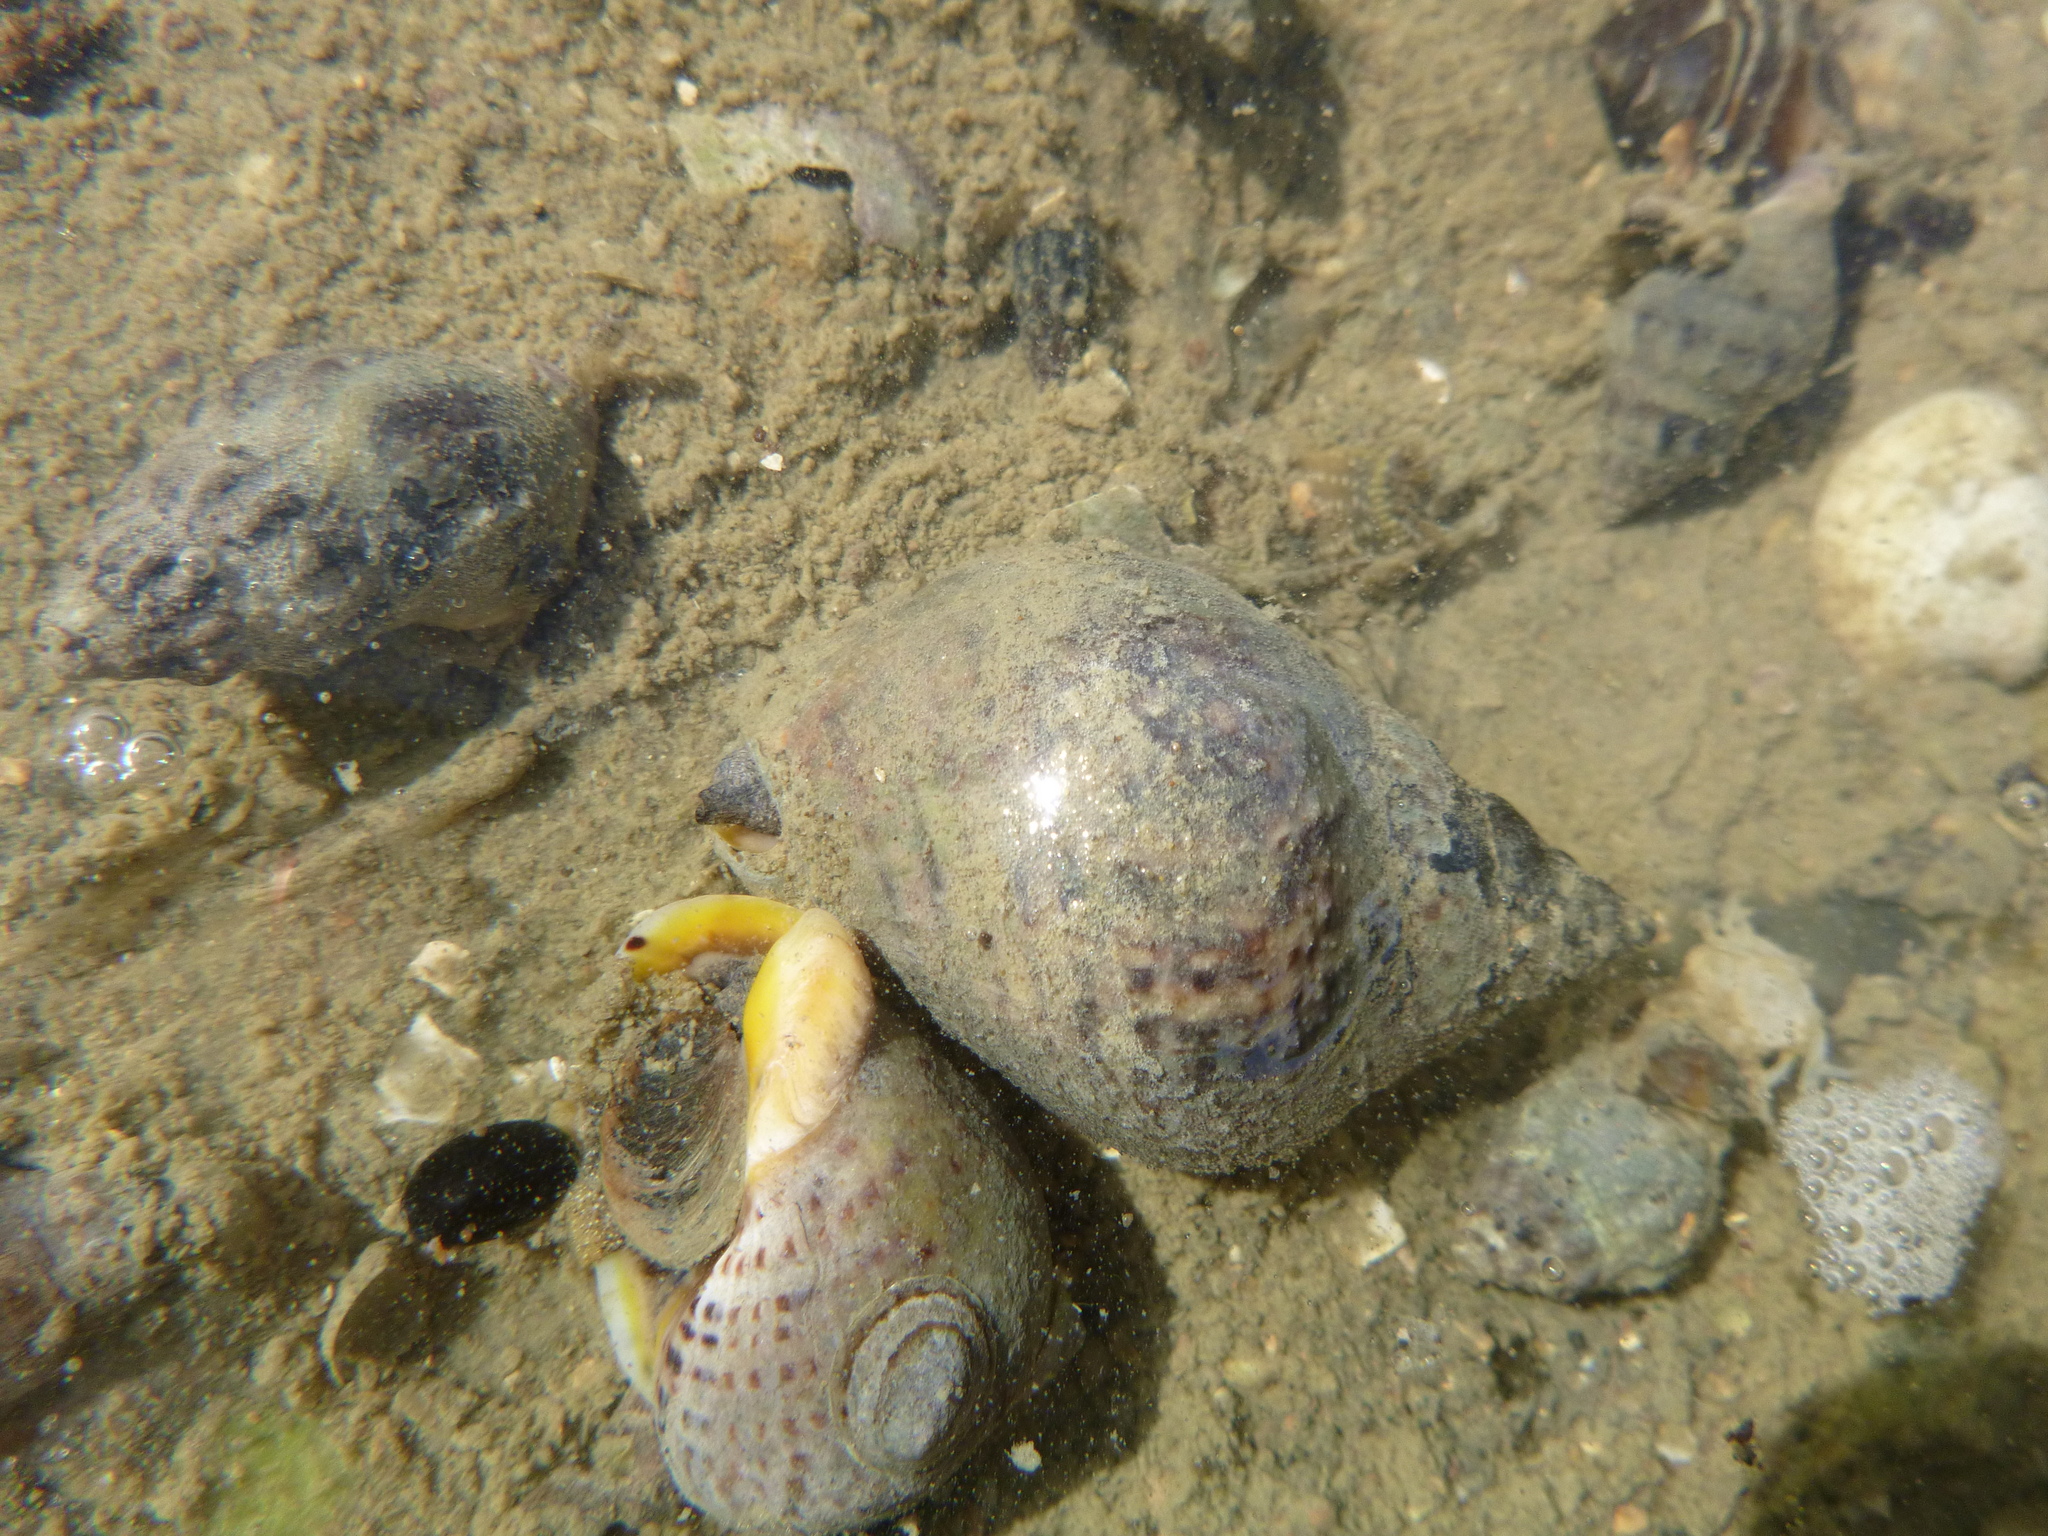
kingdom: Animalia
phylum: Mollusca
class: Gastropoda
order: Neogastropoda
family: Cominellidae
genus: Cominella
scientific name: Cominella adspersa
